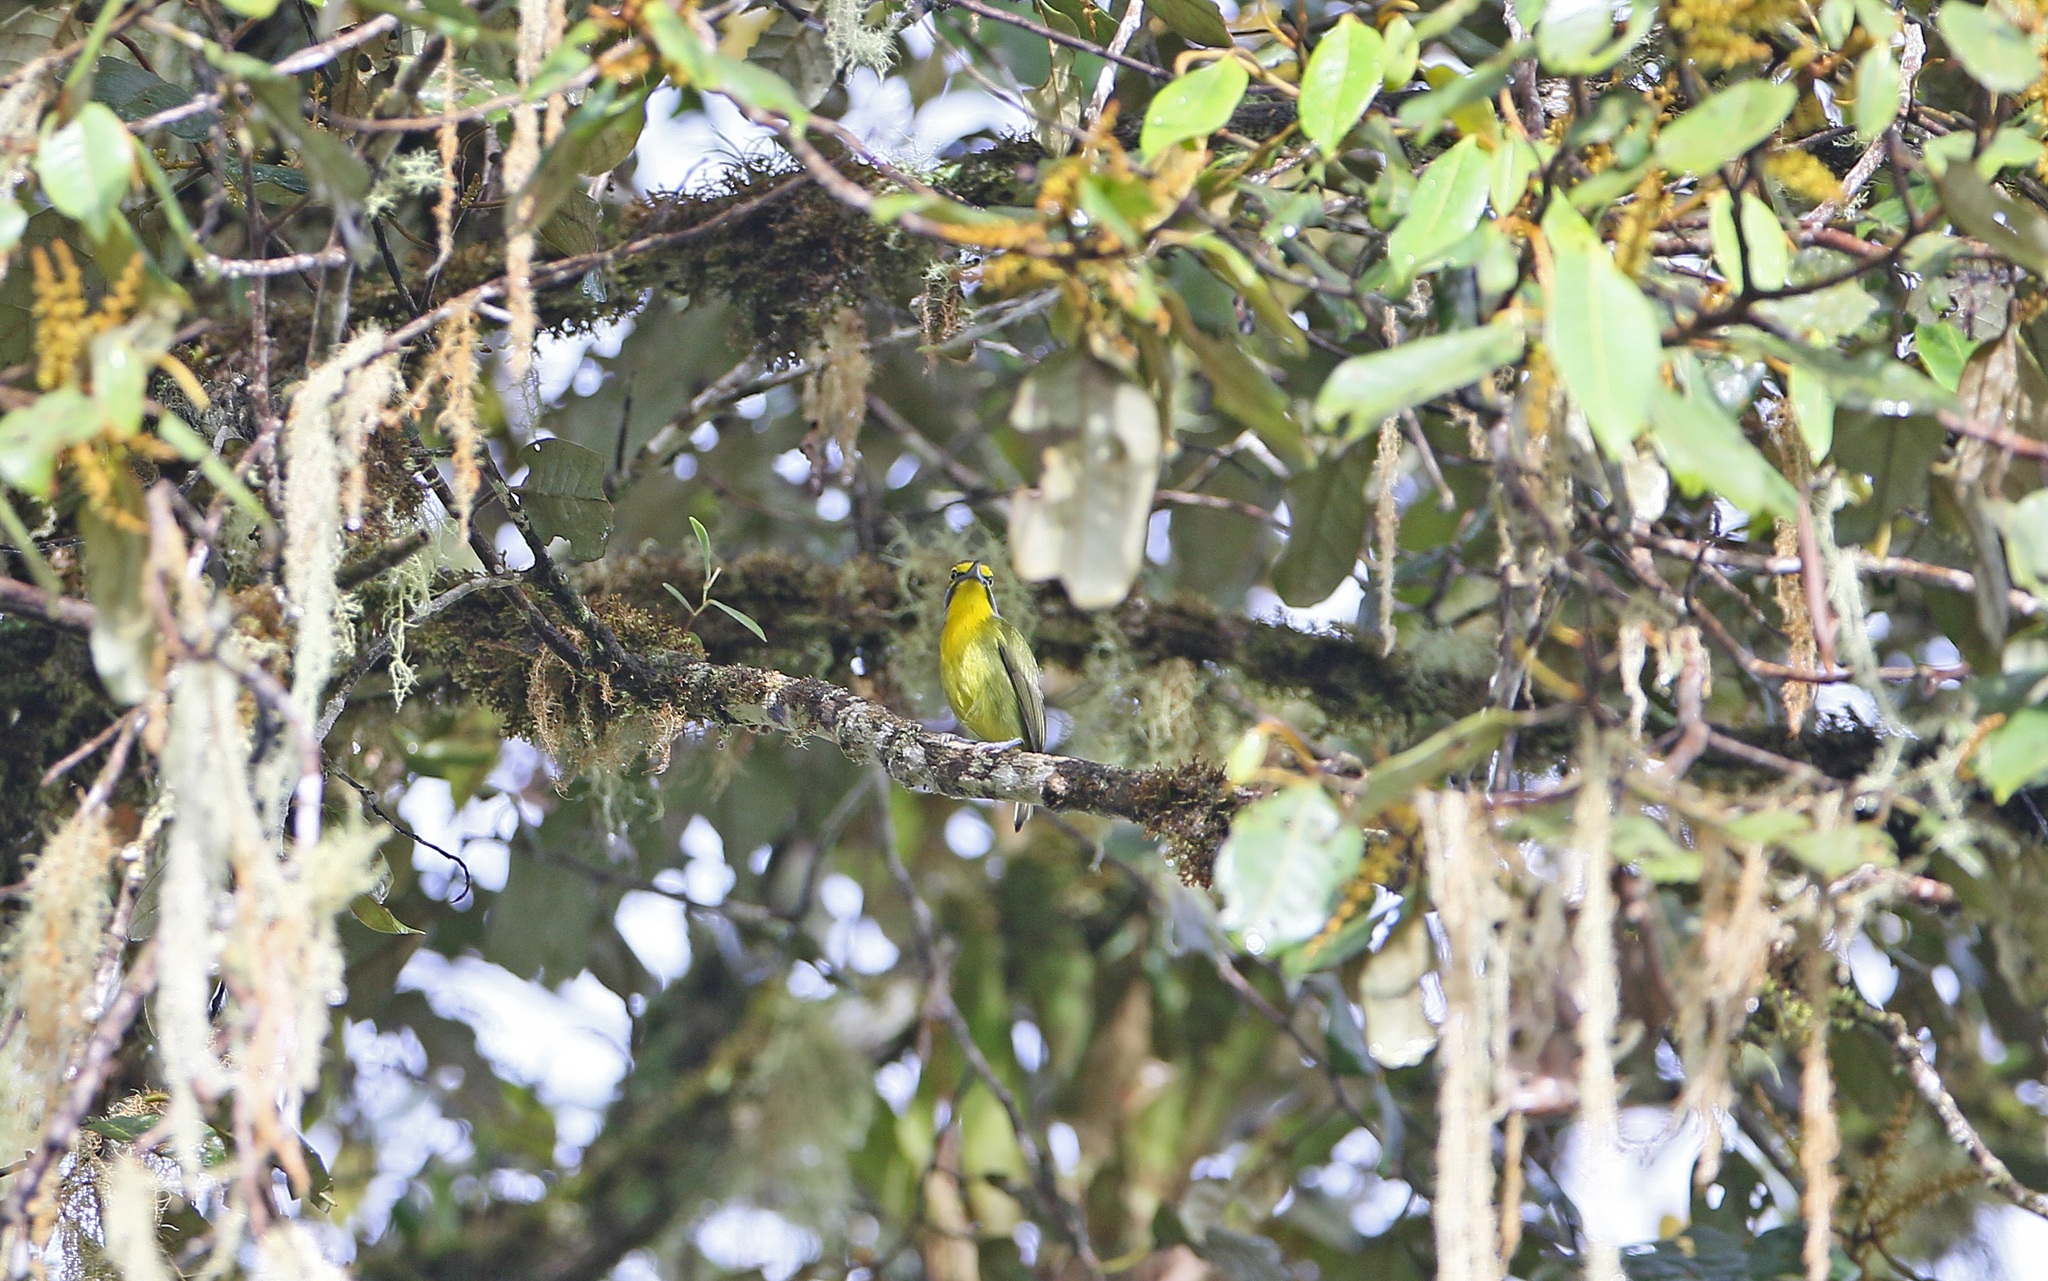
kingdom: Animalia
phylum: Chordata
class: Aves
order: Passeriformes
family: Vireonidae
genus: Vireolanius
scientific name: Vireolanius leucotis
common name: Slaty-capped shrike-vireo
